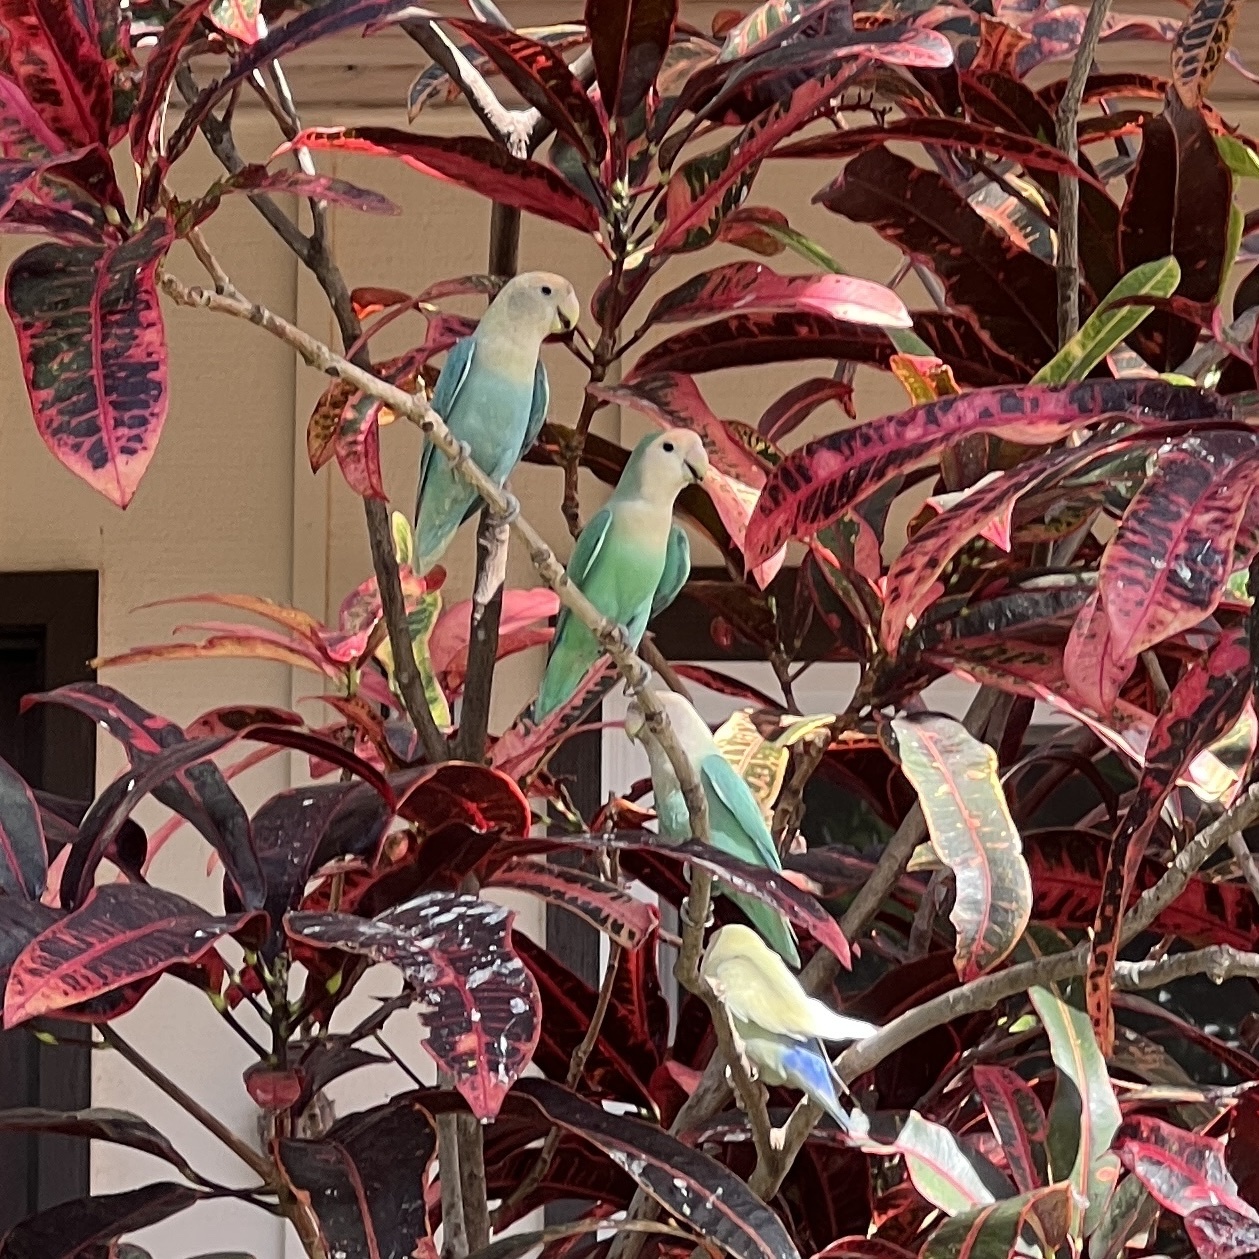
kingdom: Animalia
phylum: Chordata
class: Aves
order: Psittaciformes
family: Psittacidae
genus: Agapornis
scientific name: Agapornis roseicollis
